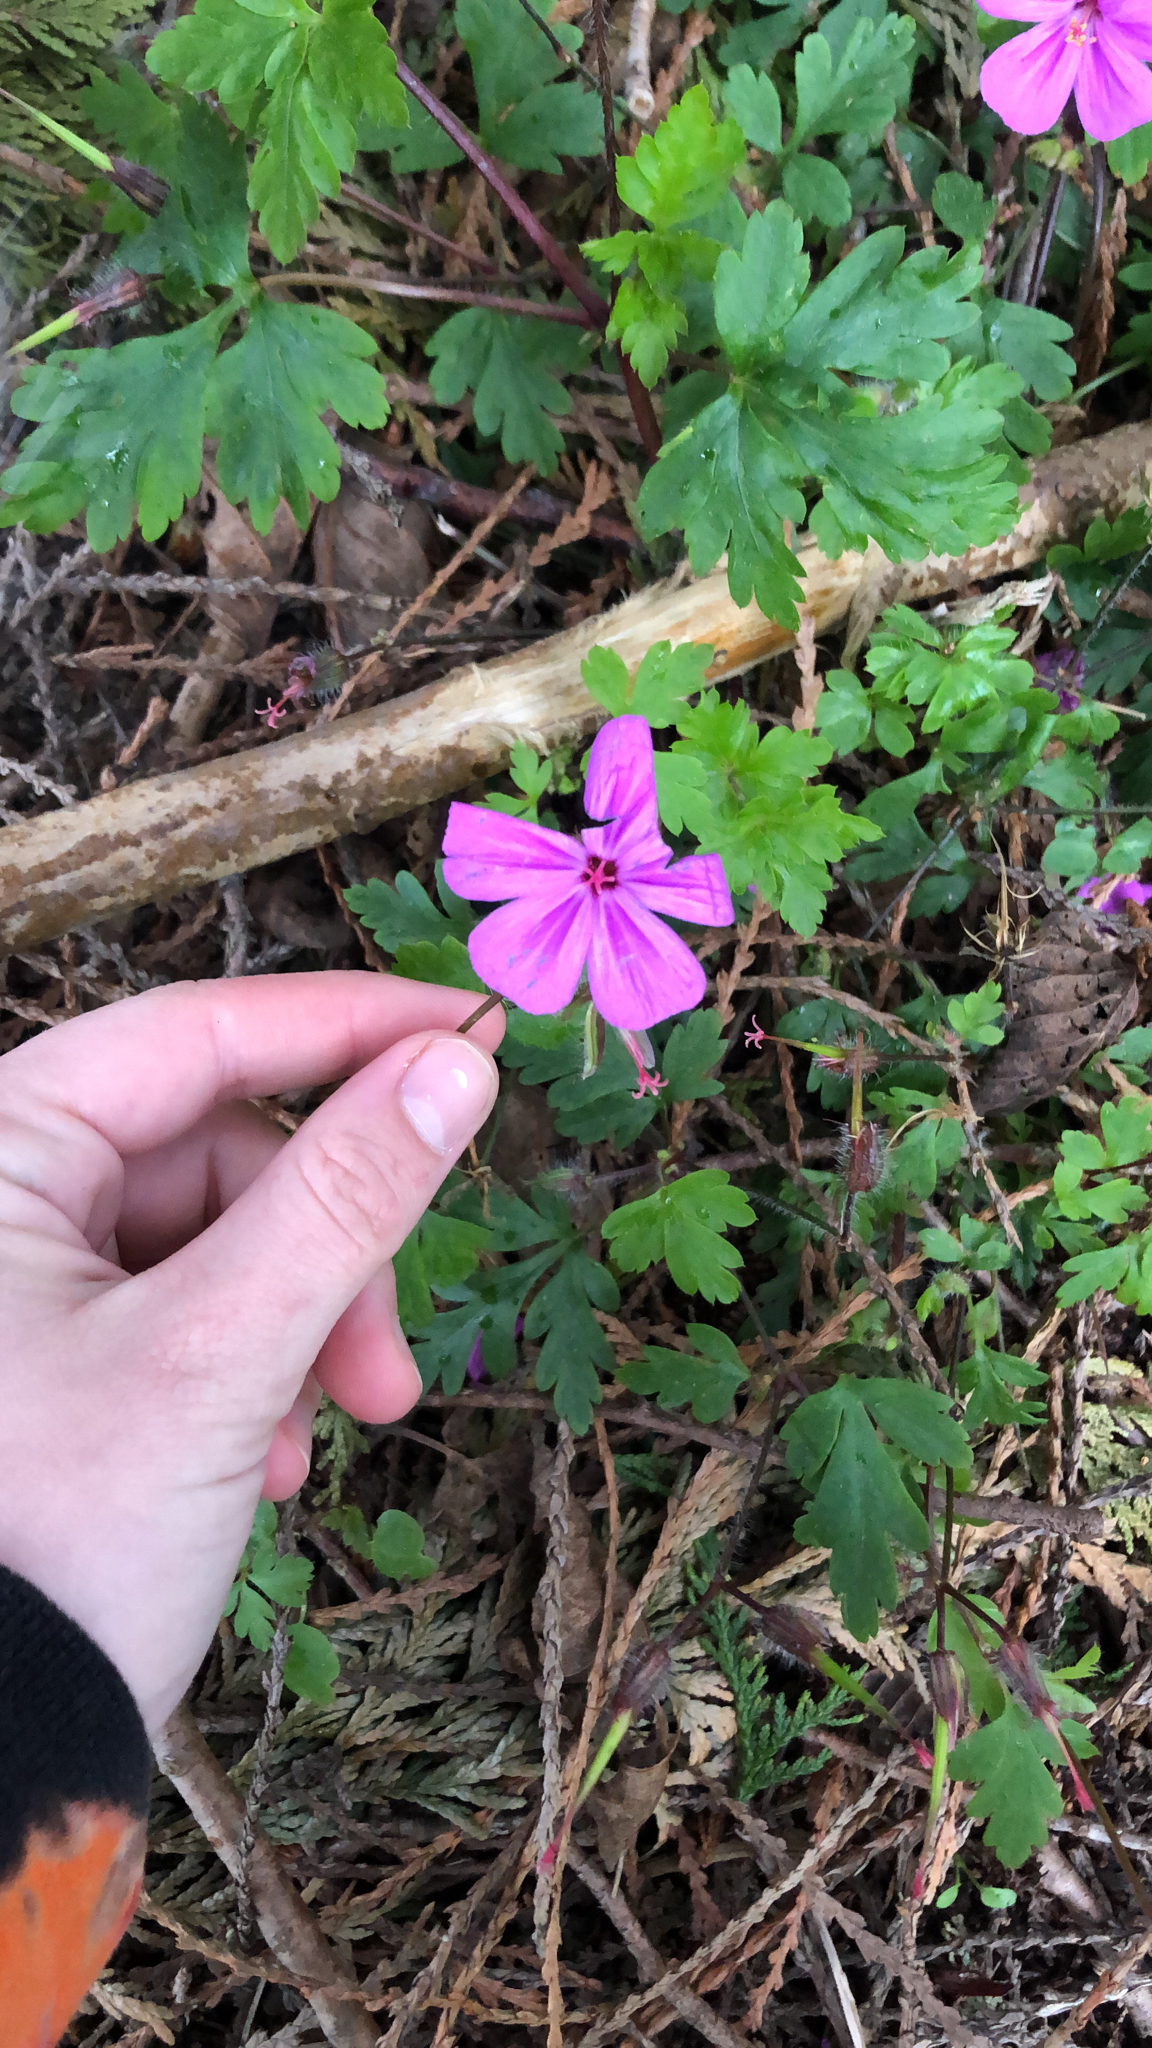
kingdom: Plantae
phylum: Tracheophyta
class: Magnoliopsida
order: Geraniales
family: Geraniaceae
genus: Geranium
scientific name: Geranium yeoi
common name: Greater herb robert
